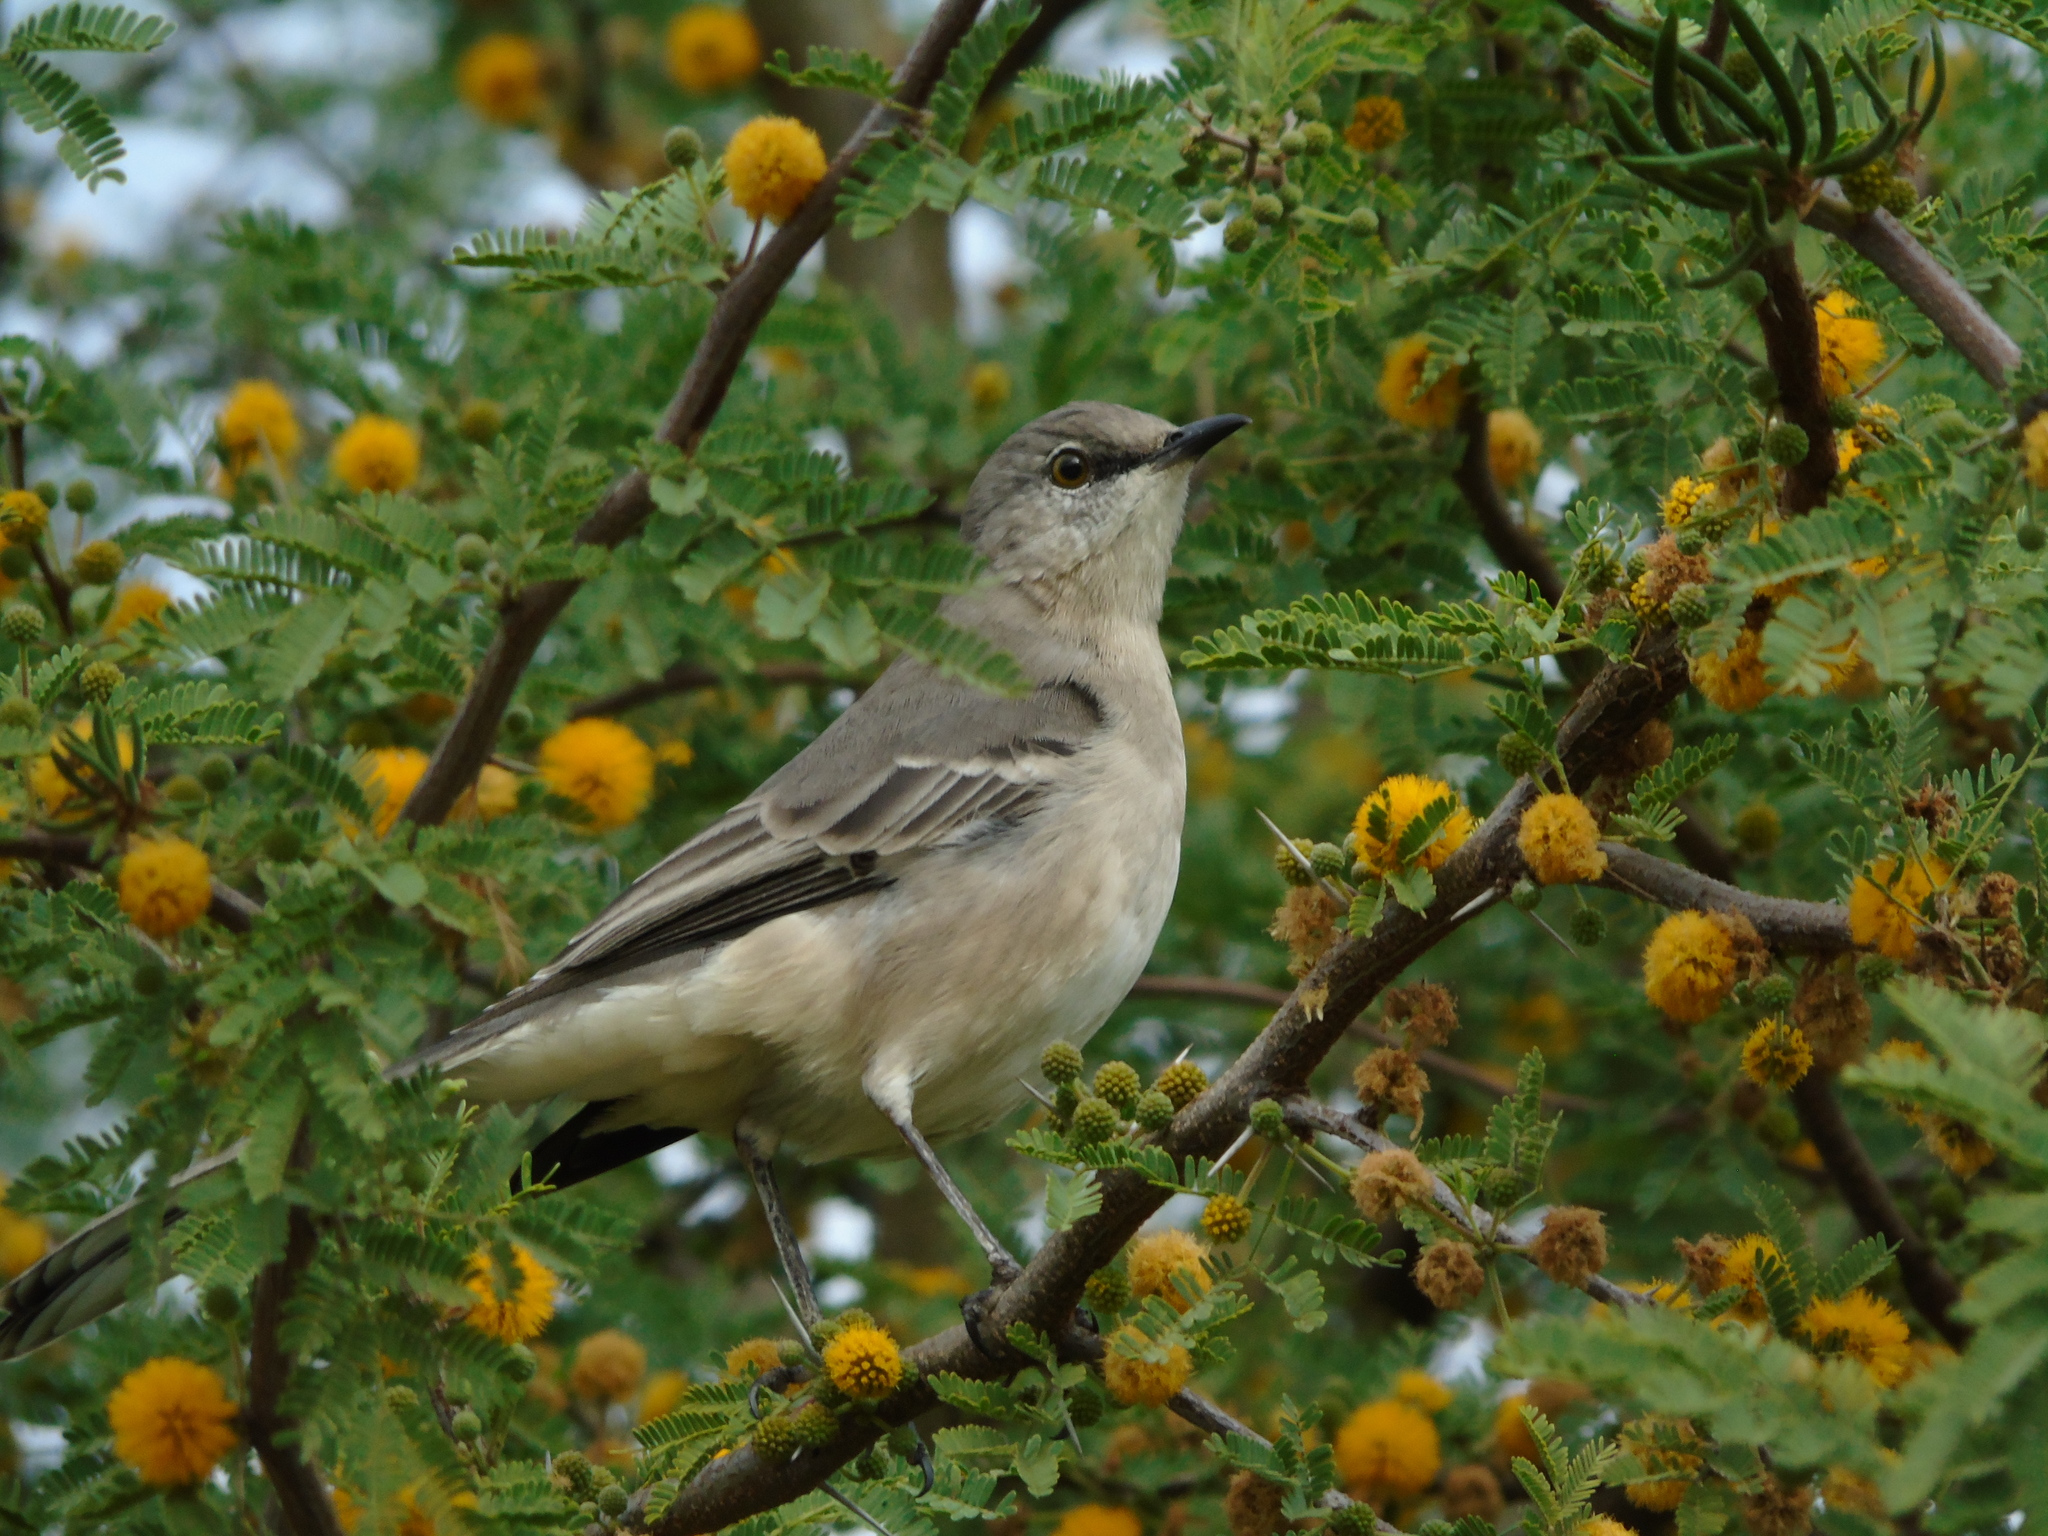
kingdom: Animalia
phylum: Chordata
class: Aves
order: Passeriformes
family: Mimidae
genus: Mimus
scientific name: Mimus polyglottos
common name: Northern mockingbird
